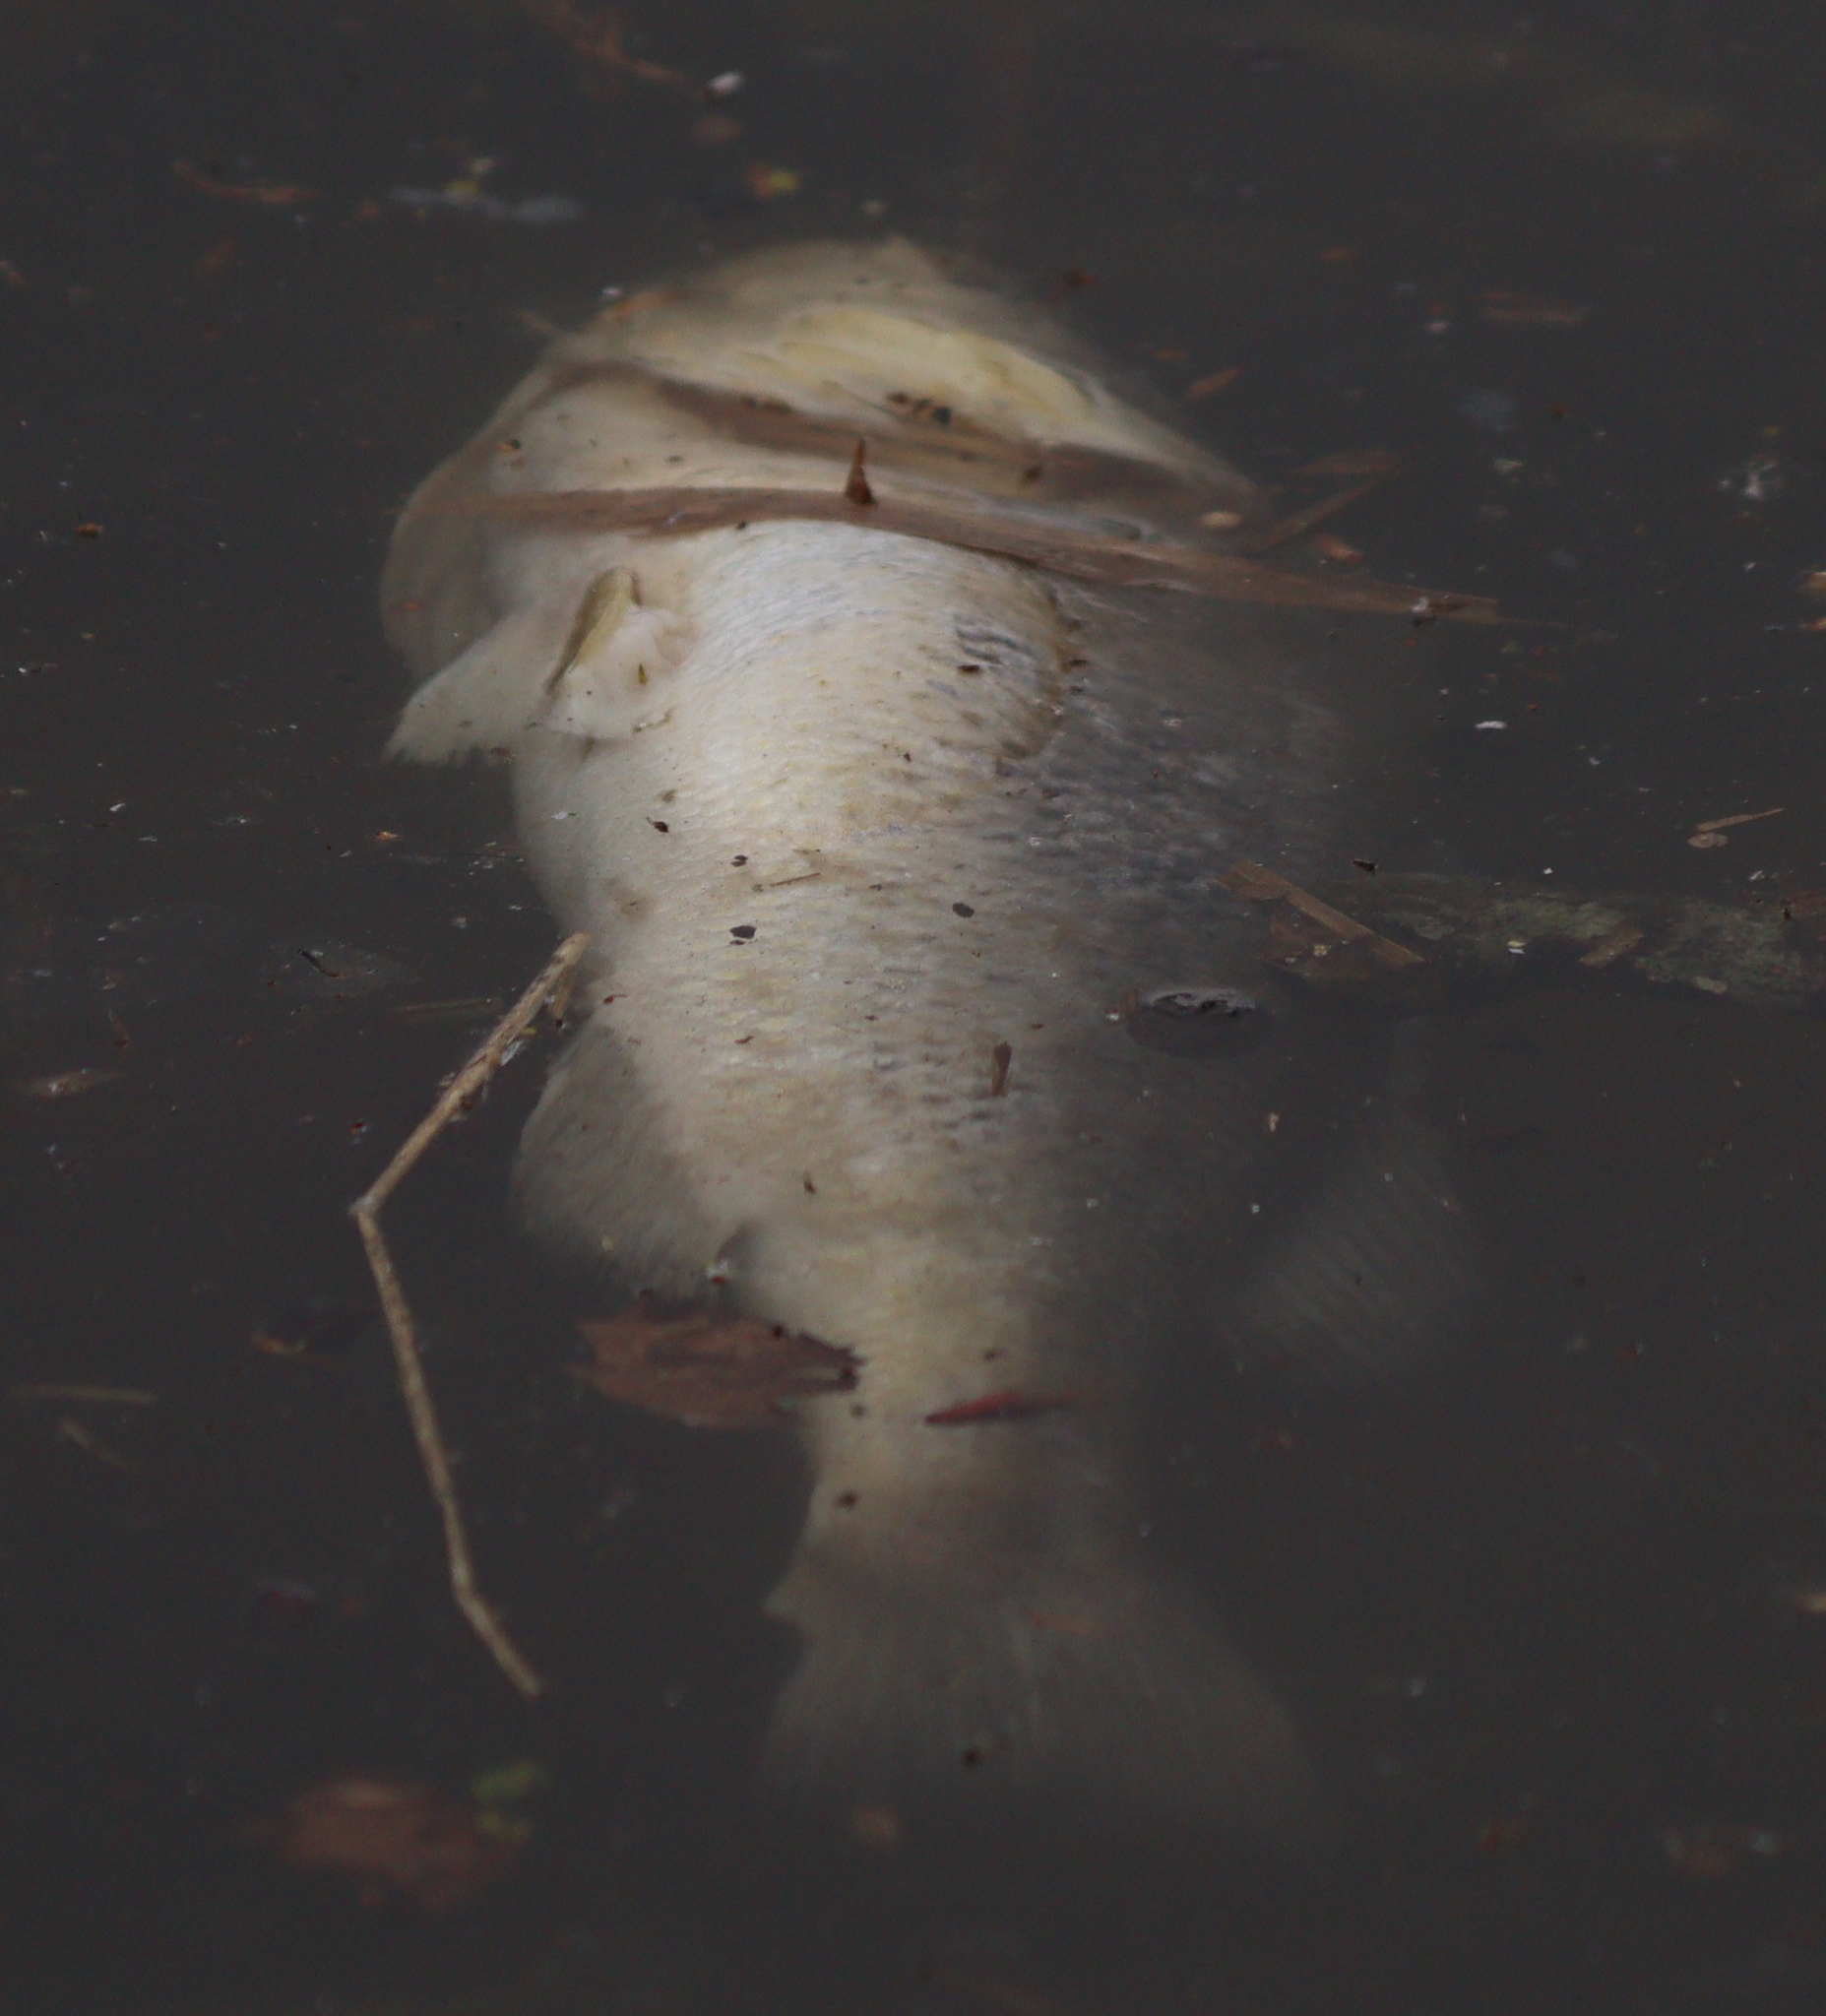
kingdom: Animalia
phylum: Chordata
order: Perciformes
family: Centrarchidae
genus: Micropterus
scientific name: Micropterus
